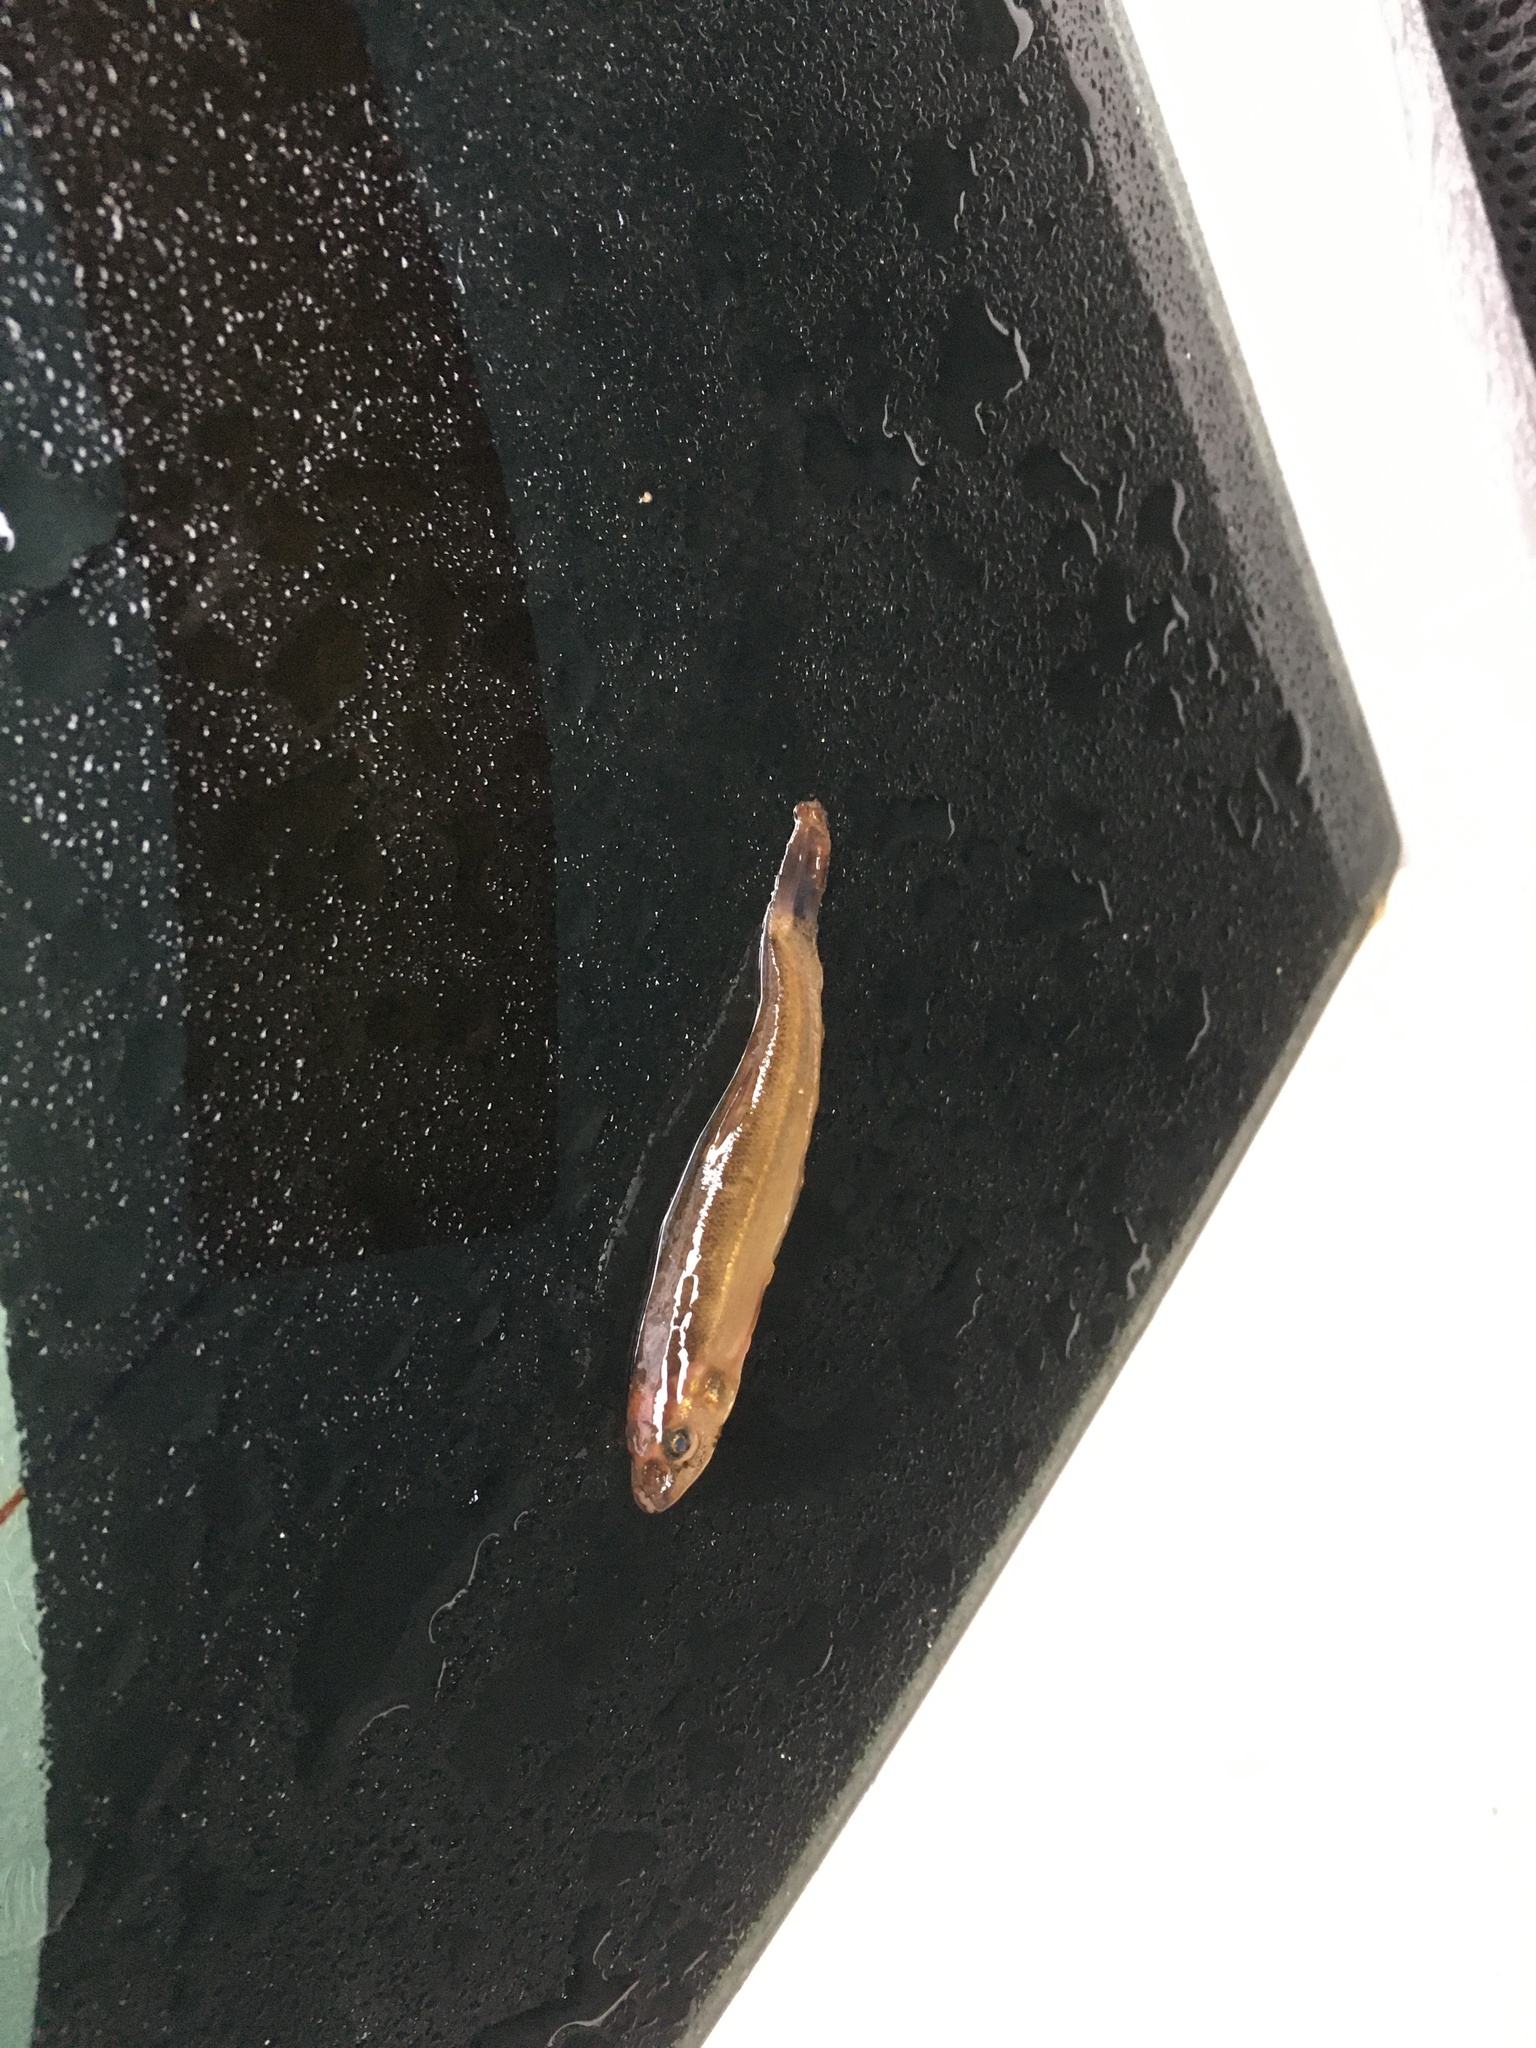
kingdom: Animalia
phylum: Chordata
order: Cypriniformes
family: Cyprinidae
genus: Rhinichthys
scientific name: Rhinichthys cataractae
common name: Longnose dace
